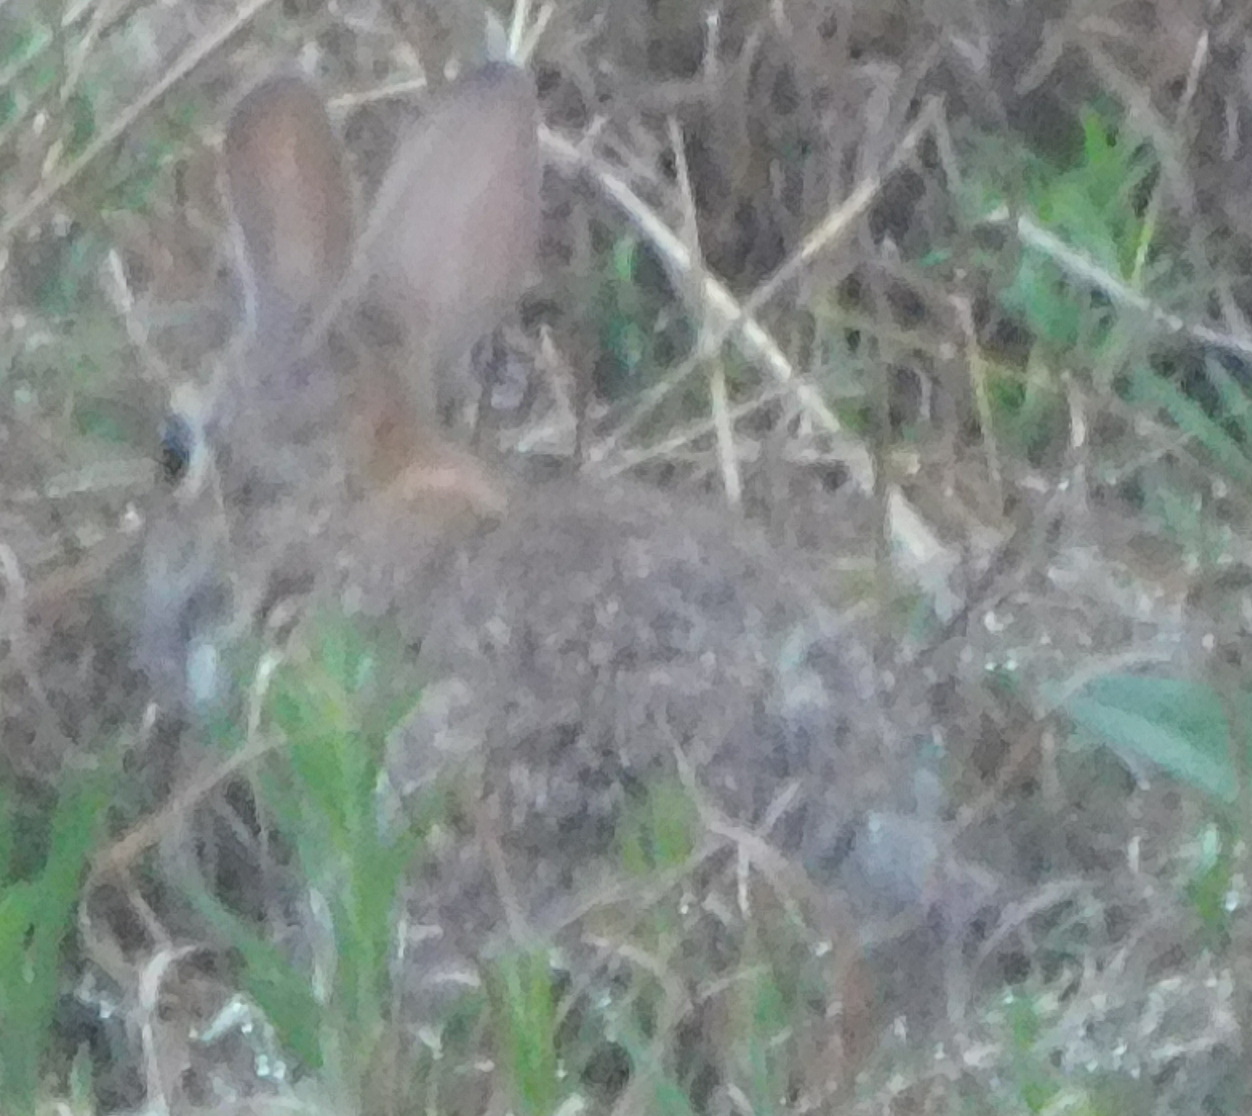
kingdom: Animalia
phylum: Chordata
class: Mammalia
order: Lagomorpha
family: Leporidae
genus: Sylvilagus
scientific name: Sylvilagus floridanus
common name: Eastern cottontail
